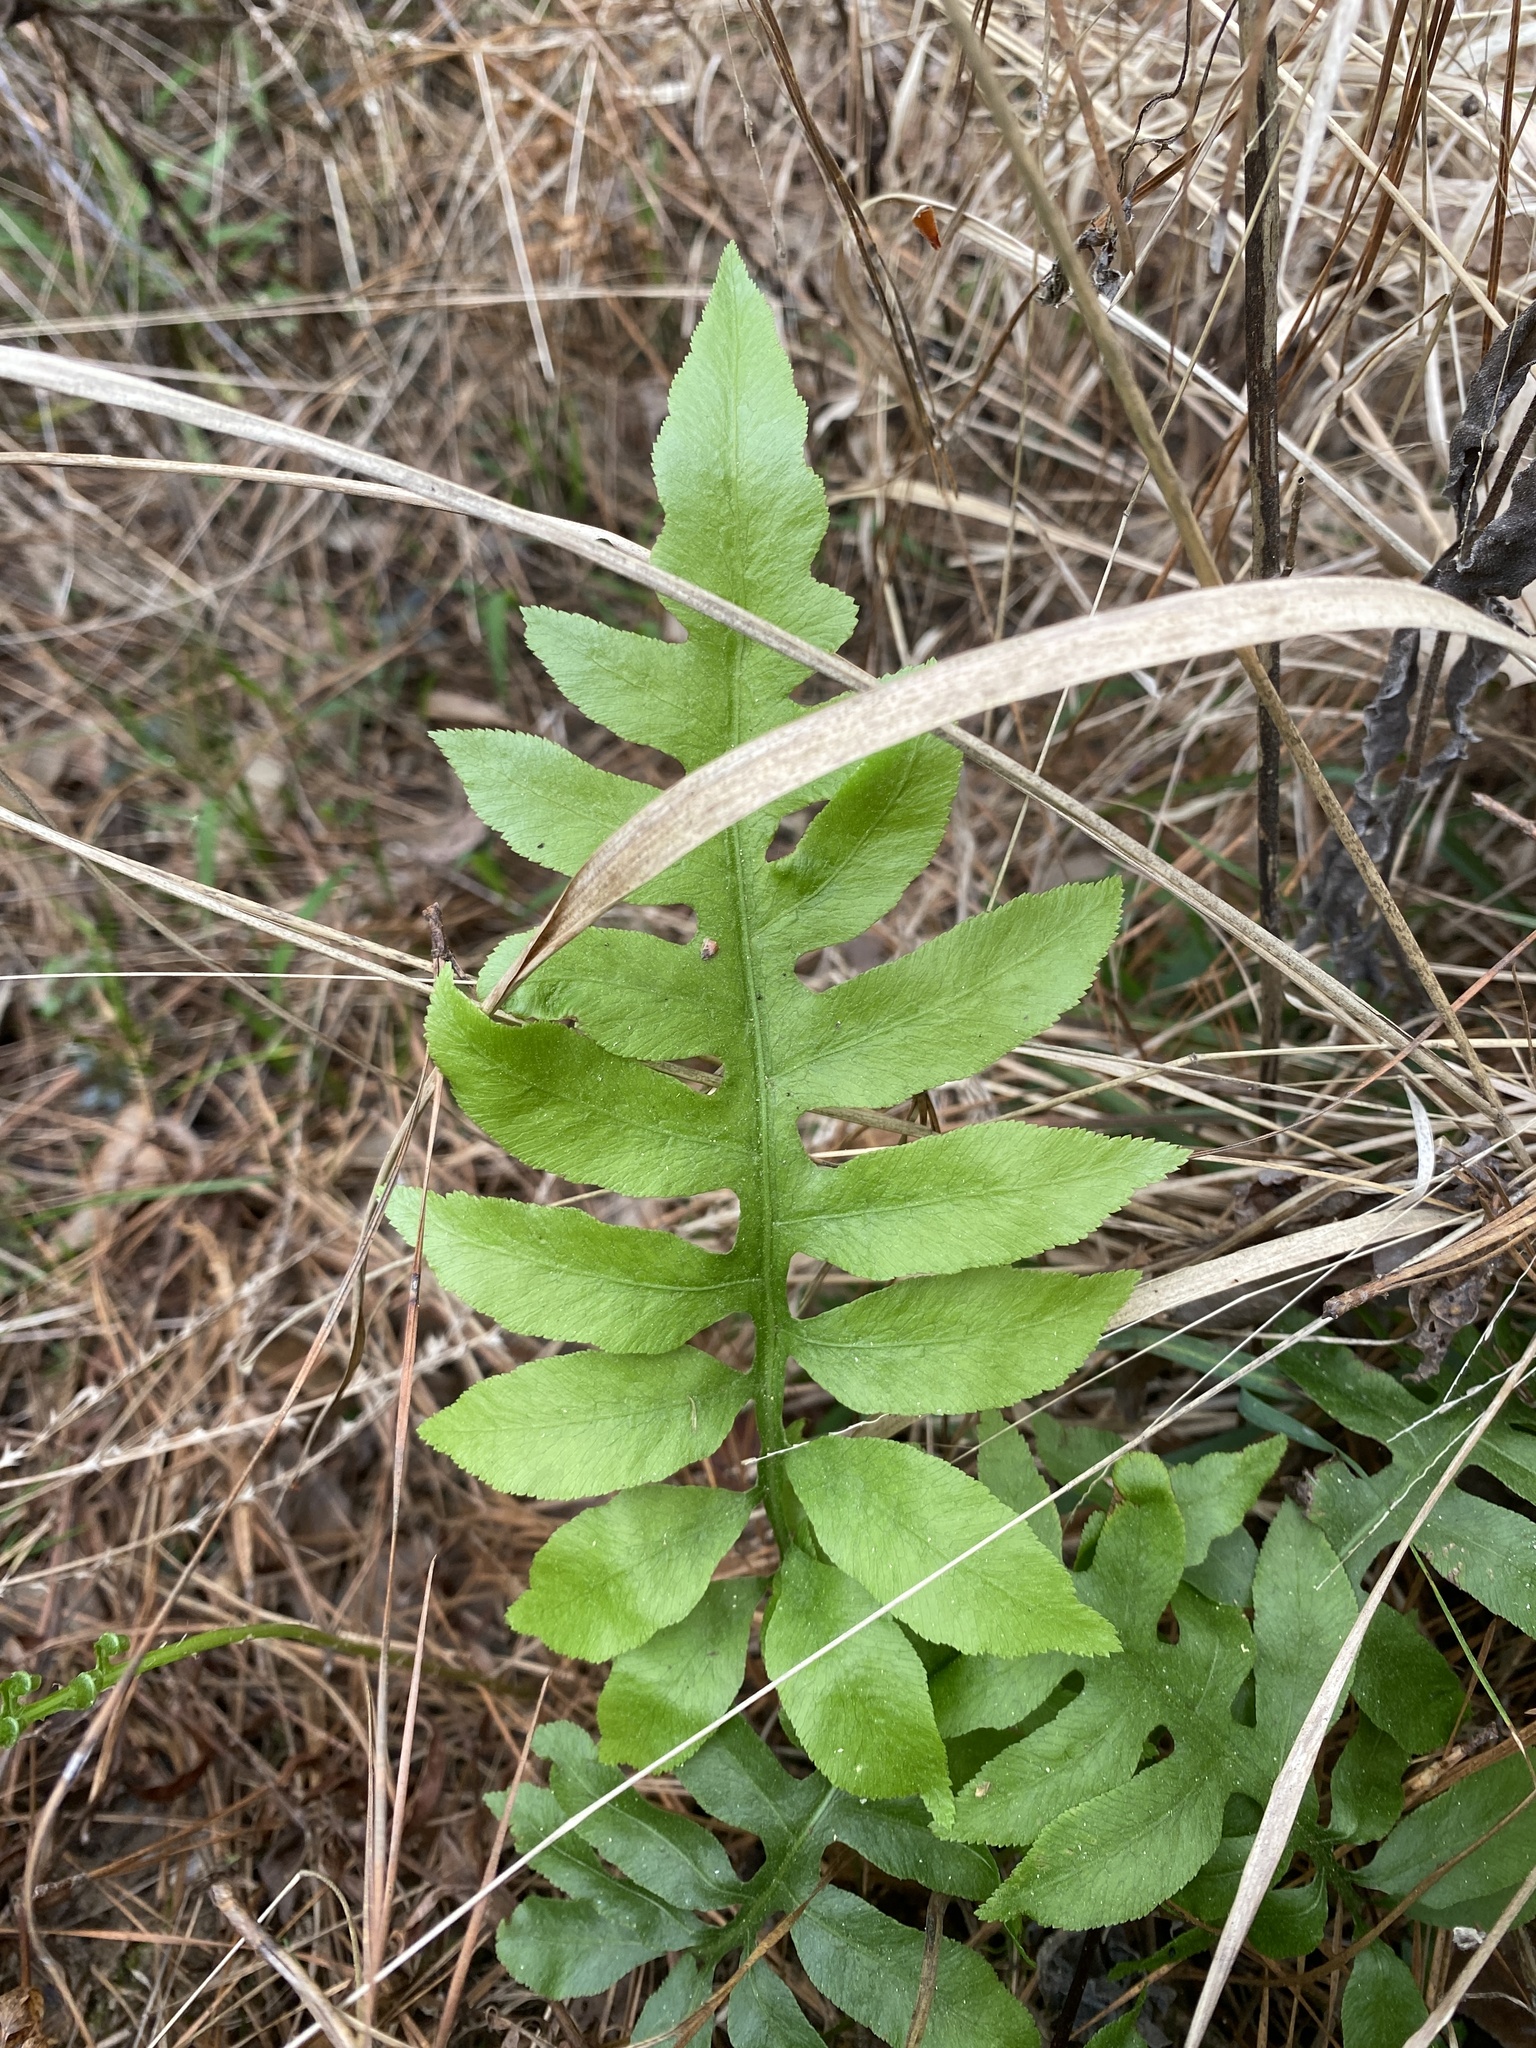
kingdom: Plantae
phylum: Tracheophyta
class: Polypodiopsida
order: Polypodiales
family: Blechnaceae
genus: Lorinseria
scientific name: Lorinseria areolata
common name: Dwarf chain fern
